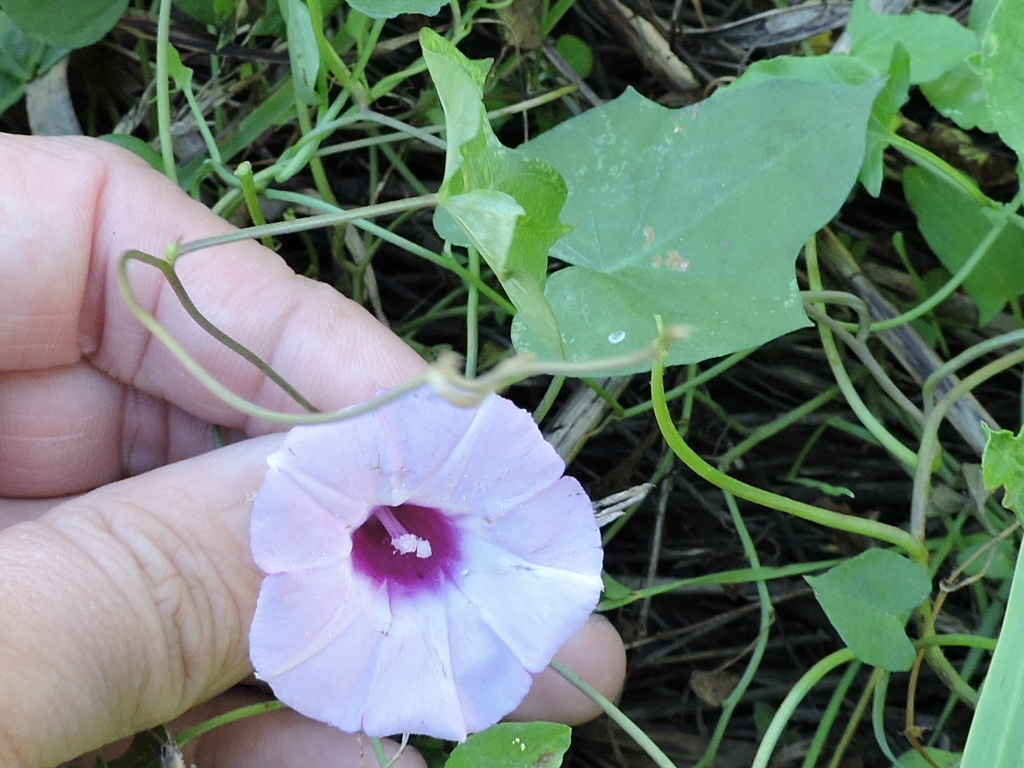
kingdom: Plantae
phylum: Tracheophyta
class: Magnoliopsida
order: Solanales
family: Convolvulaceae
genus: Ipomoea
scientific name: Ipomoea cordatotriloba
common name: Cotton morning glory
